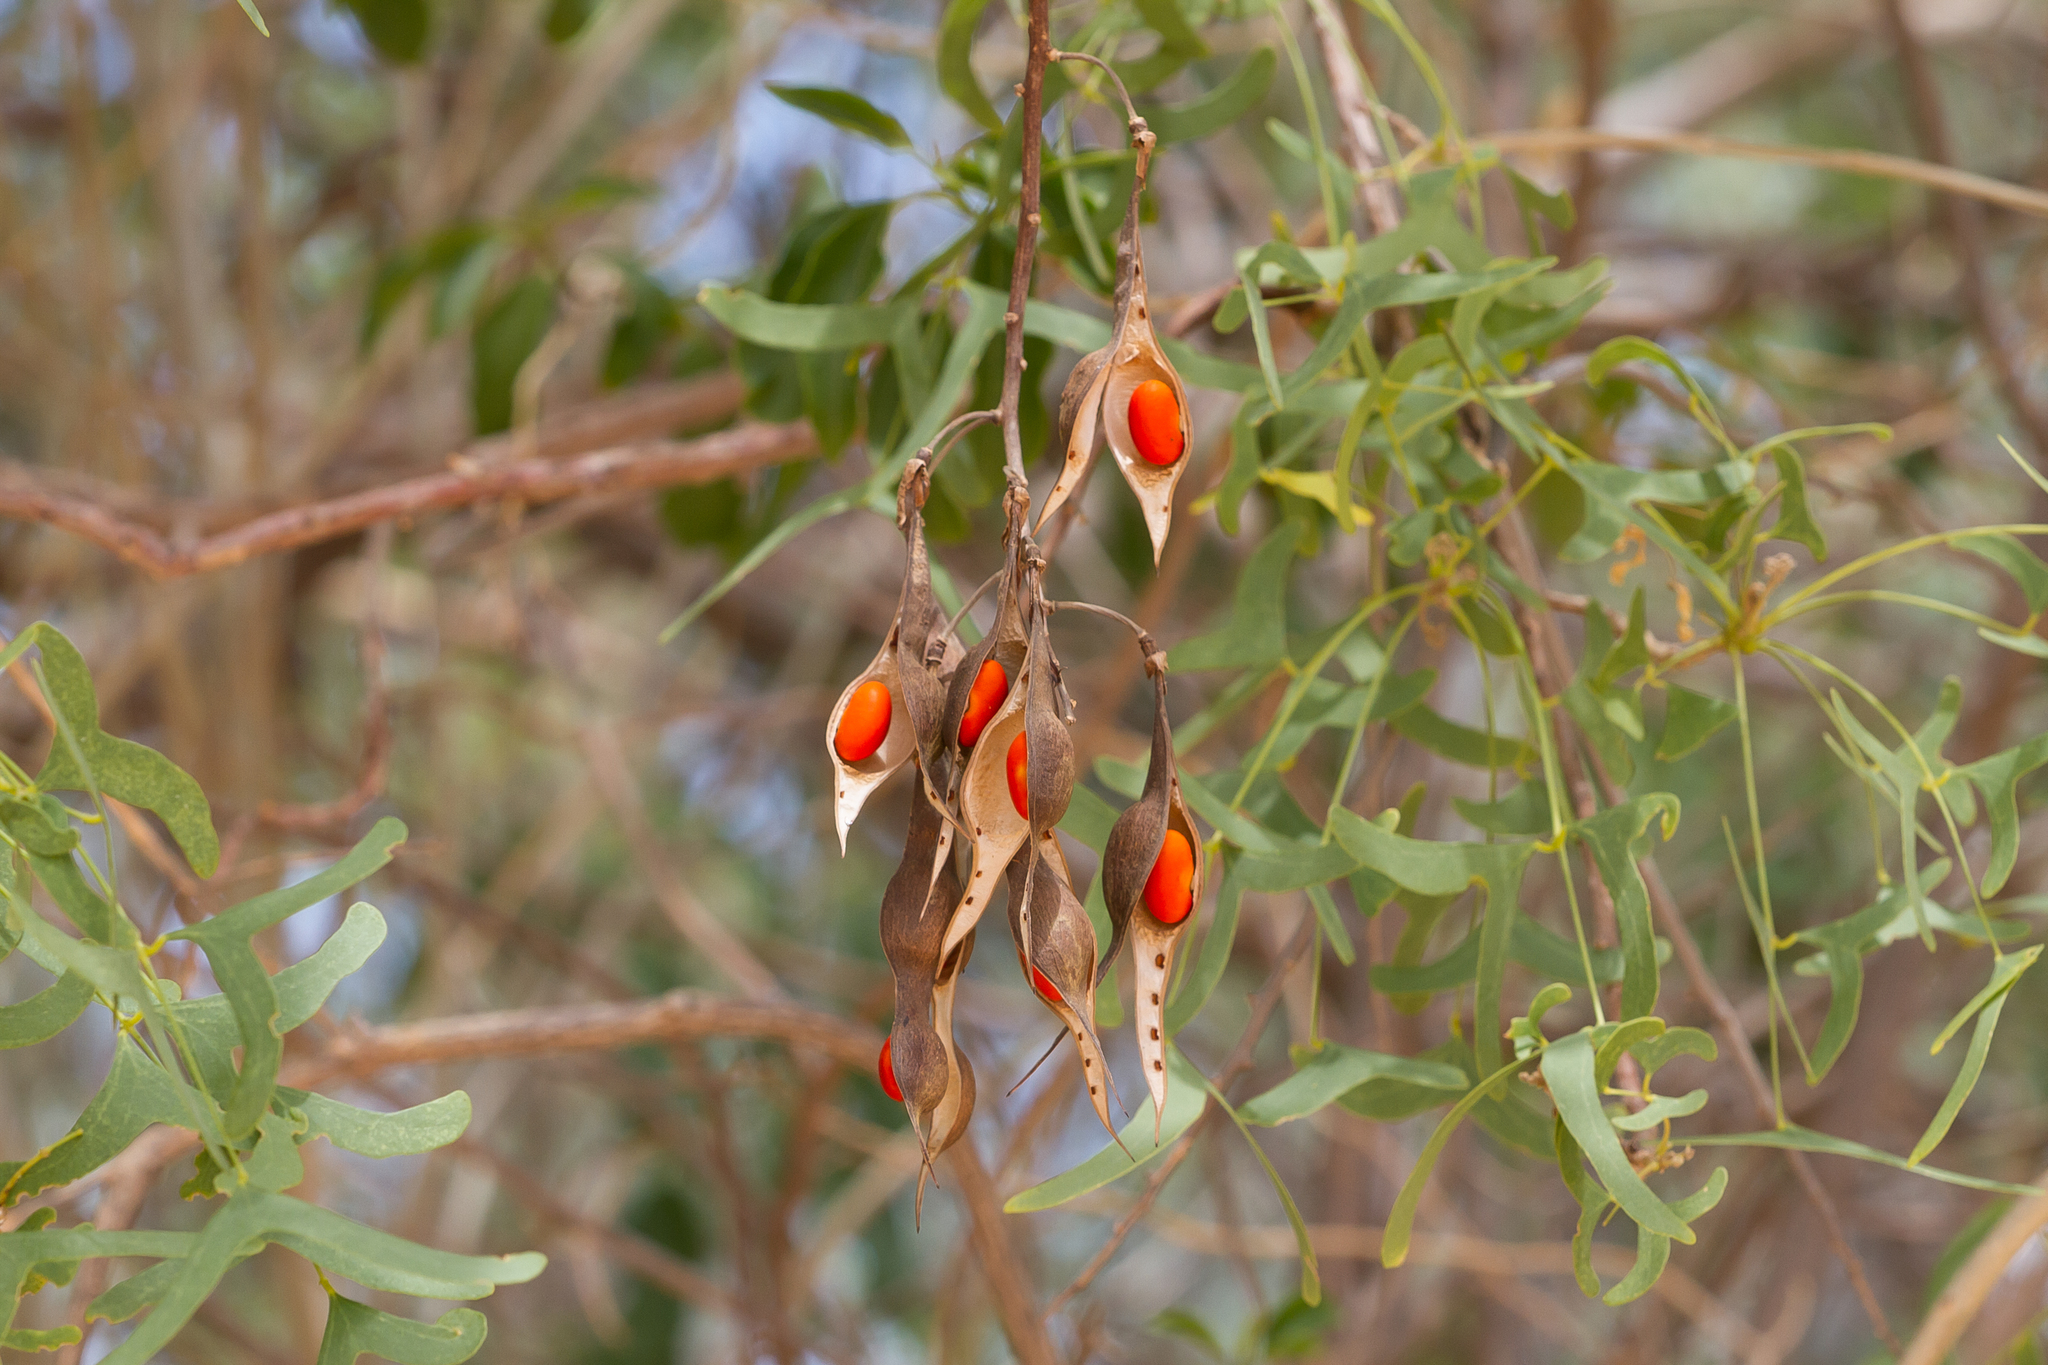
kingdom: Plantae
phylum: Tracheophyta
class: Magnoliopsida
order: Fabales
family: Fabaceae
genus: Erythrina
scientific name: Erythrina vespertilio
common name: Bat-wing coral tree
